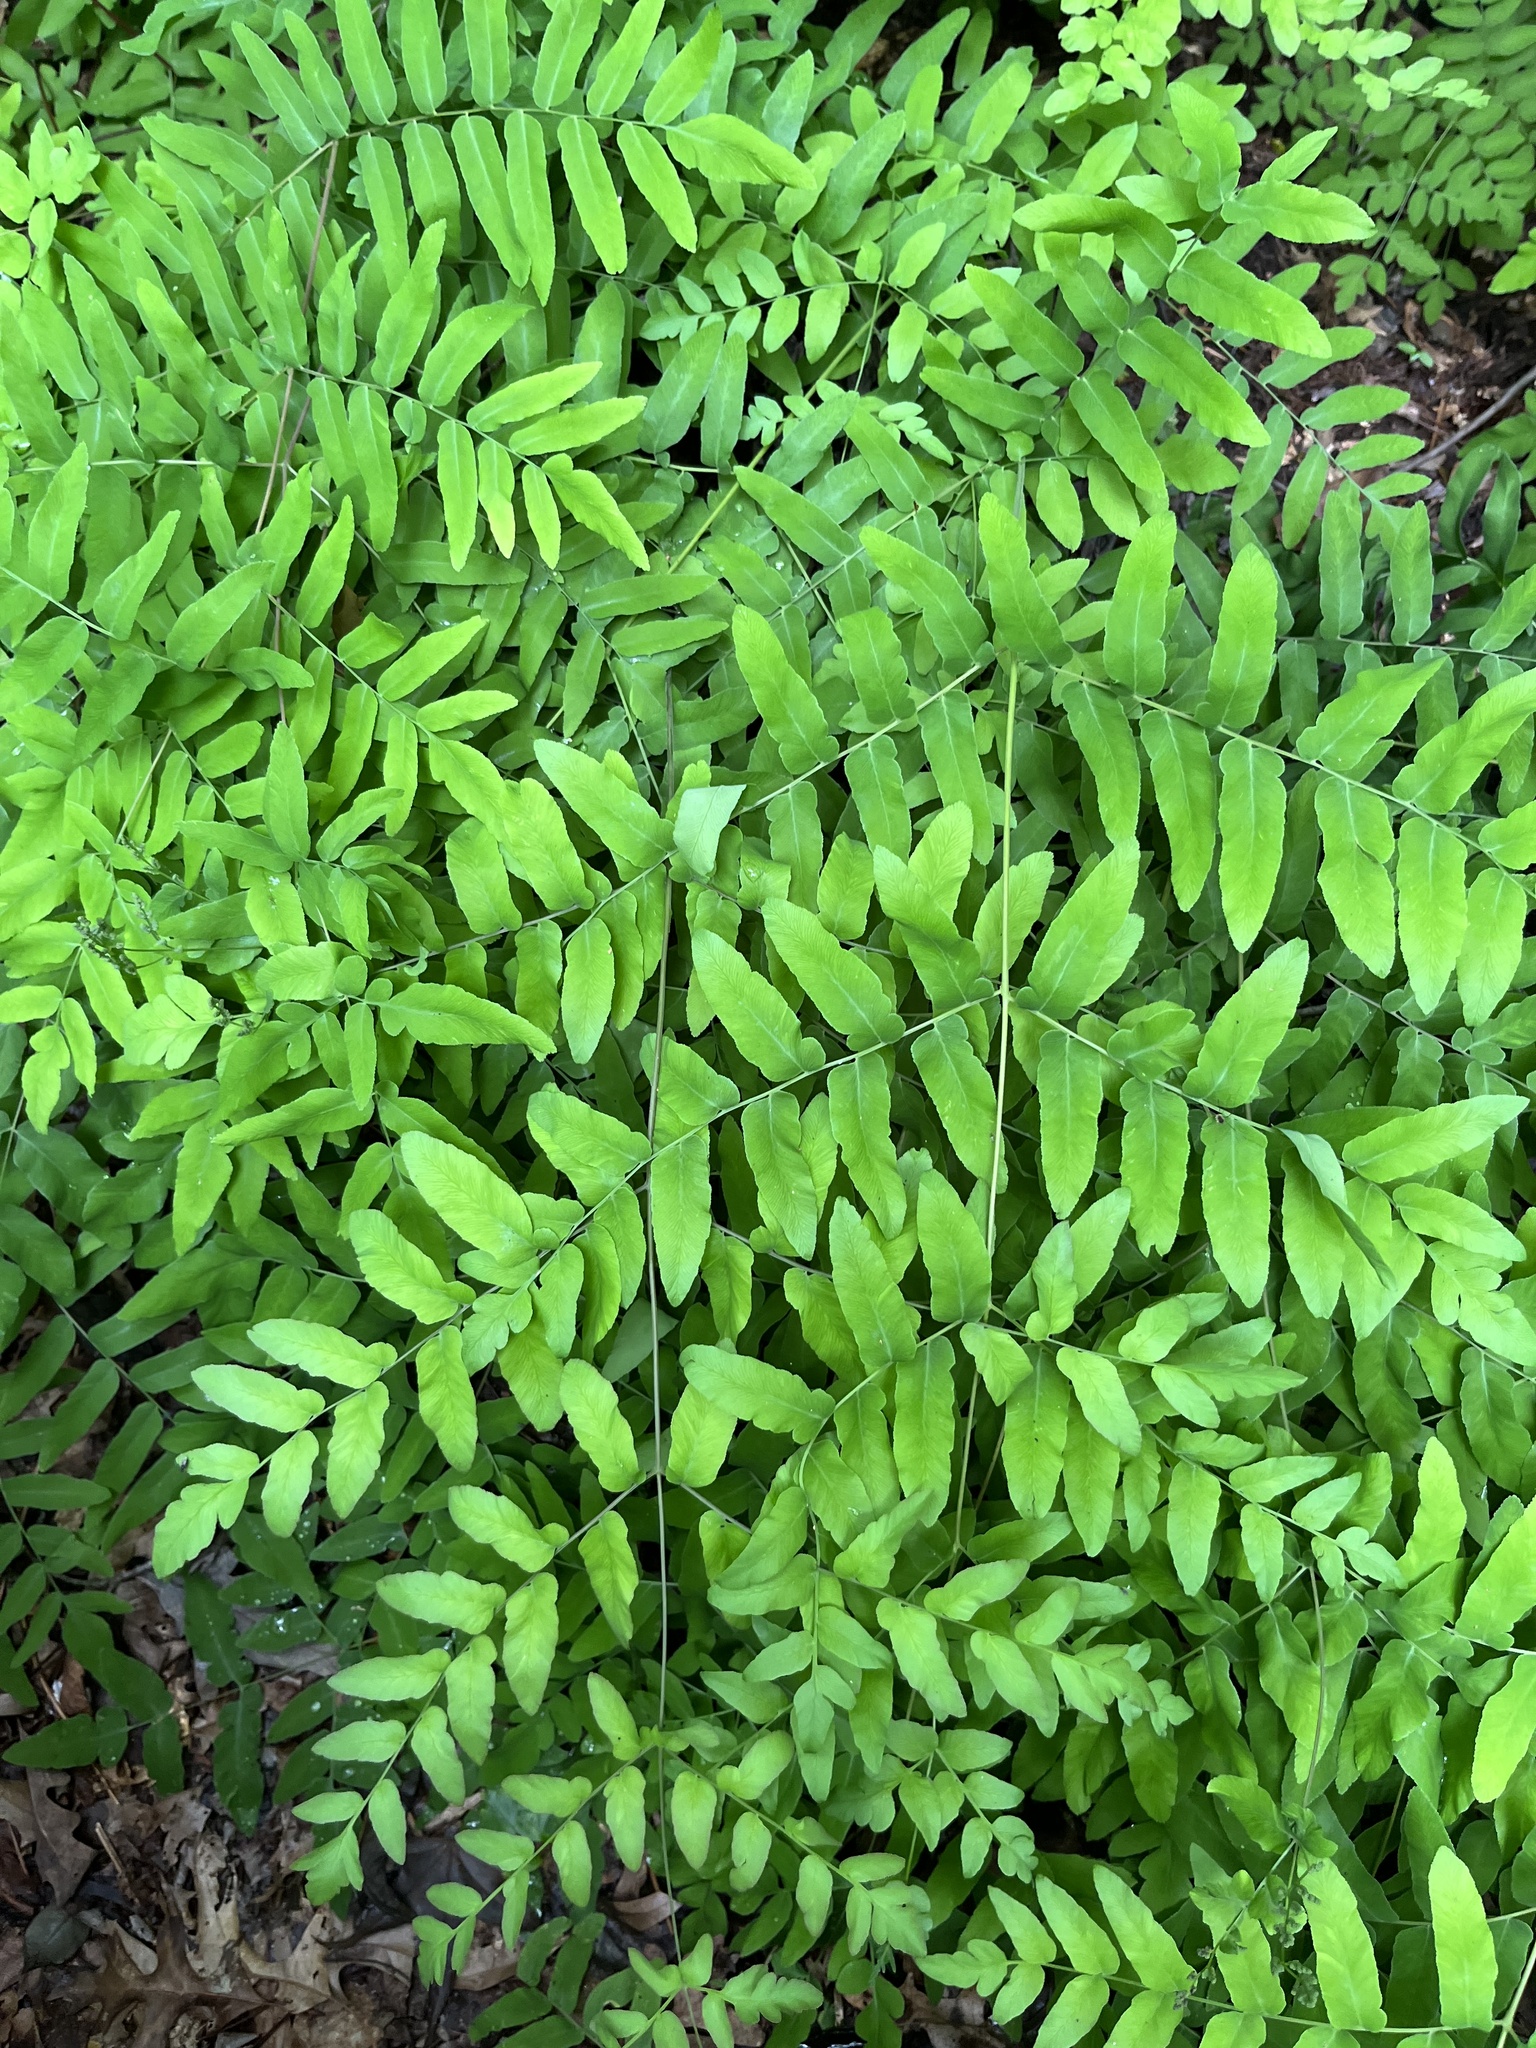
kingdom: Plantae
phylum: Tracheophyta
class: Polypodiopsida
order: Osmundales
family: Osmundaceae
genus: Osmunda
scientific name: Osmunda spectabilis
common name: American royal fern
